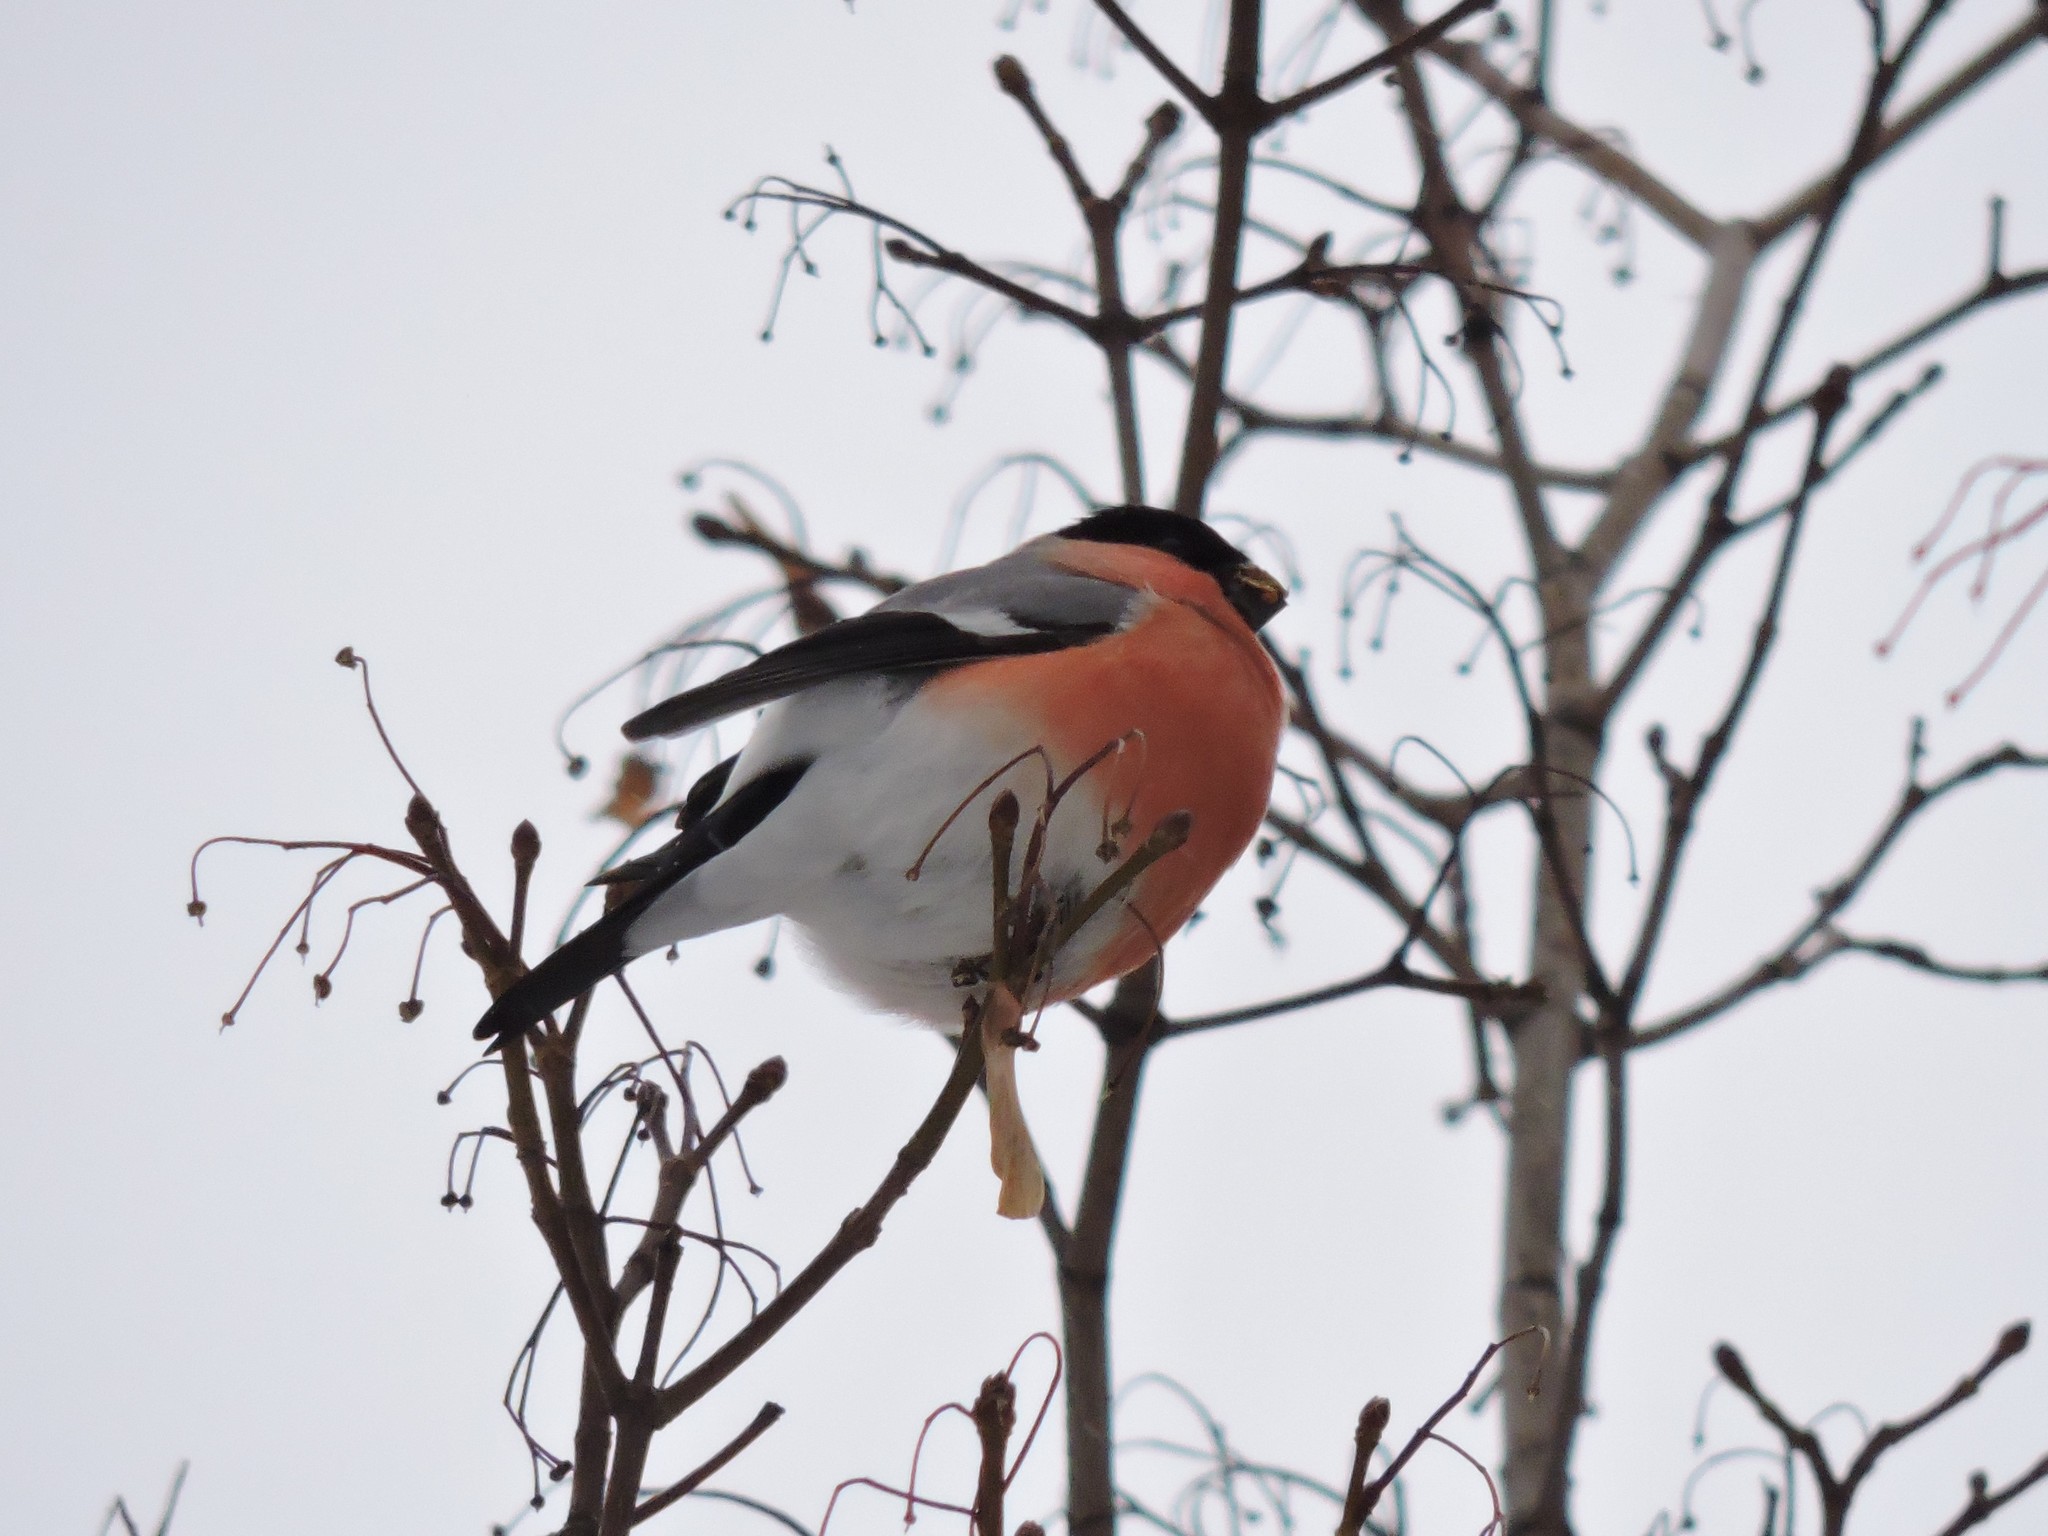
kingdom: Animalia
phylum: Chordata
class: Aves
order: Passeriformes
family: Fringillidae
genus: Pyrrhula
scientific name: Pyrrhula pyrrhula
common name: Eurasian bullfinch
